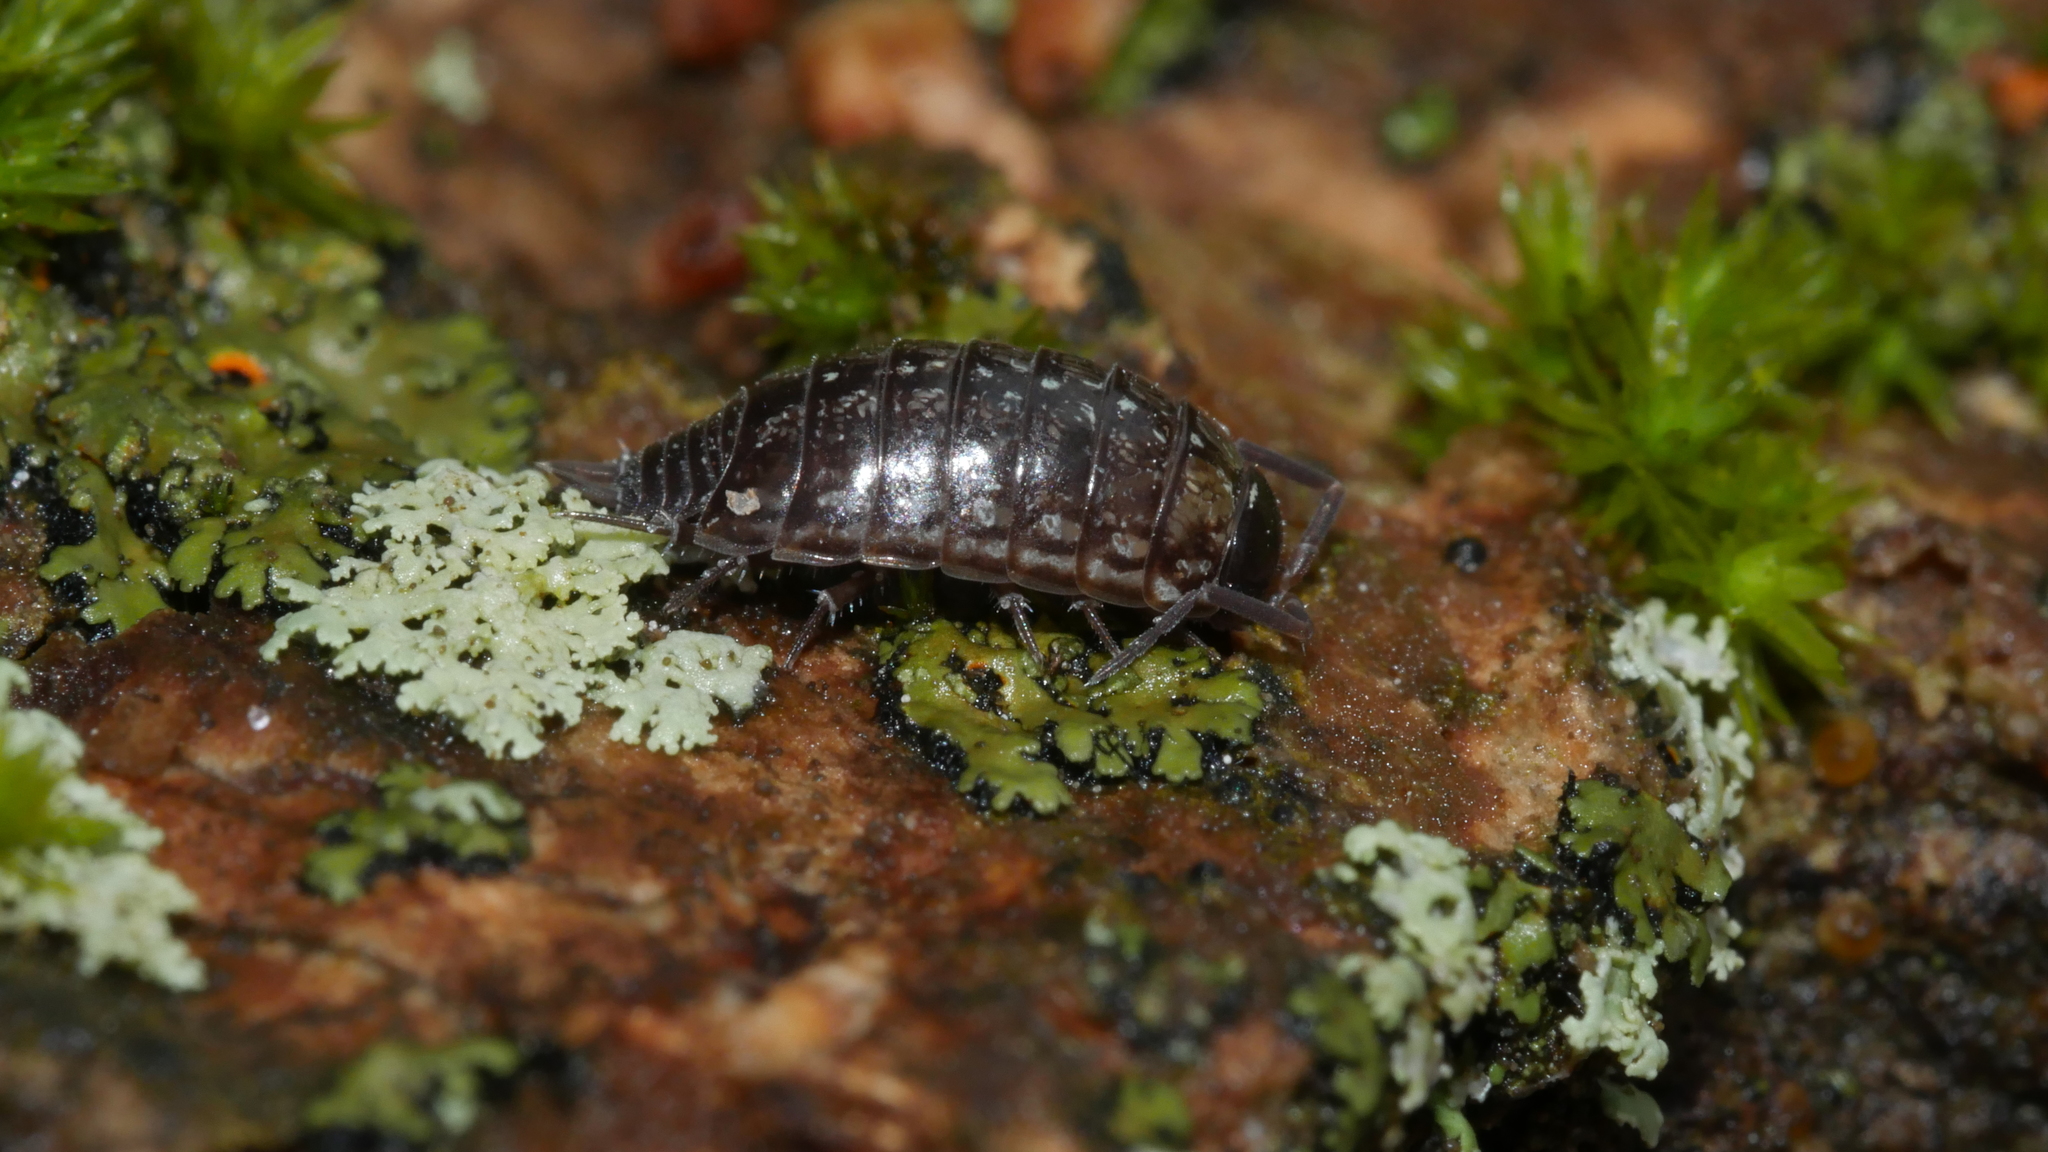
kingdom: Animalia
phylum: Arthropoda
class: Malacostraca
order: Isopoda
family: Philosciidae
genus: Philoscia
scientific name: Philoscia muscorum
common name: Common striped woodlouse
